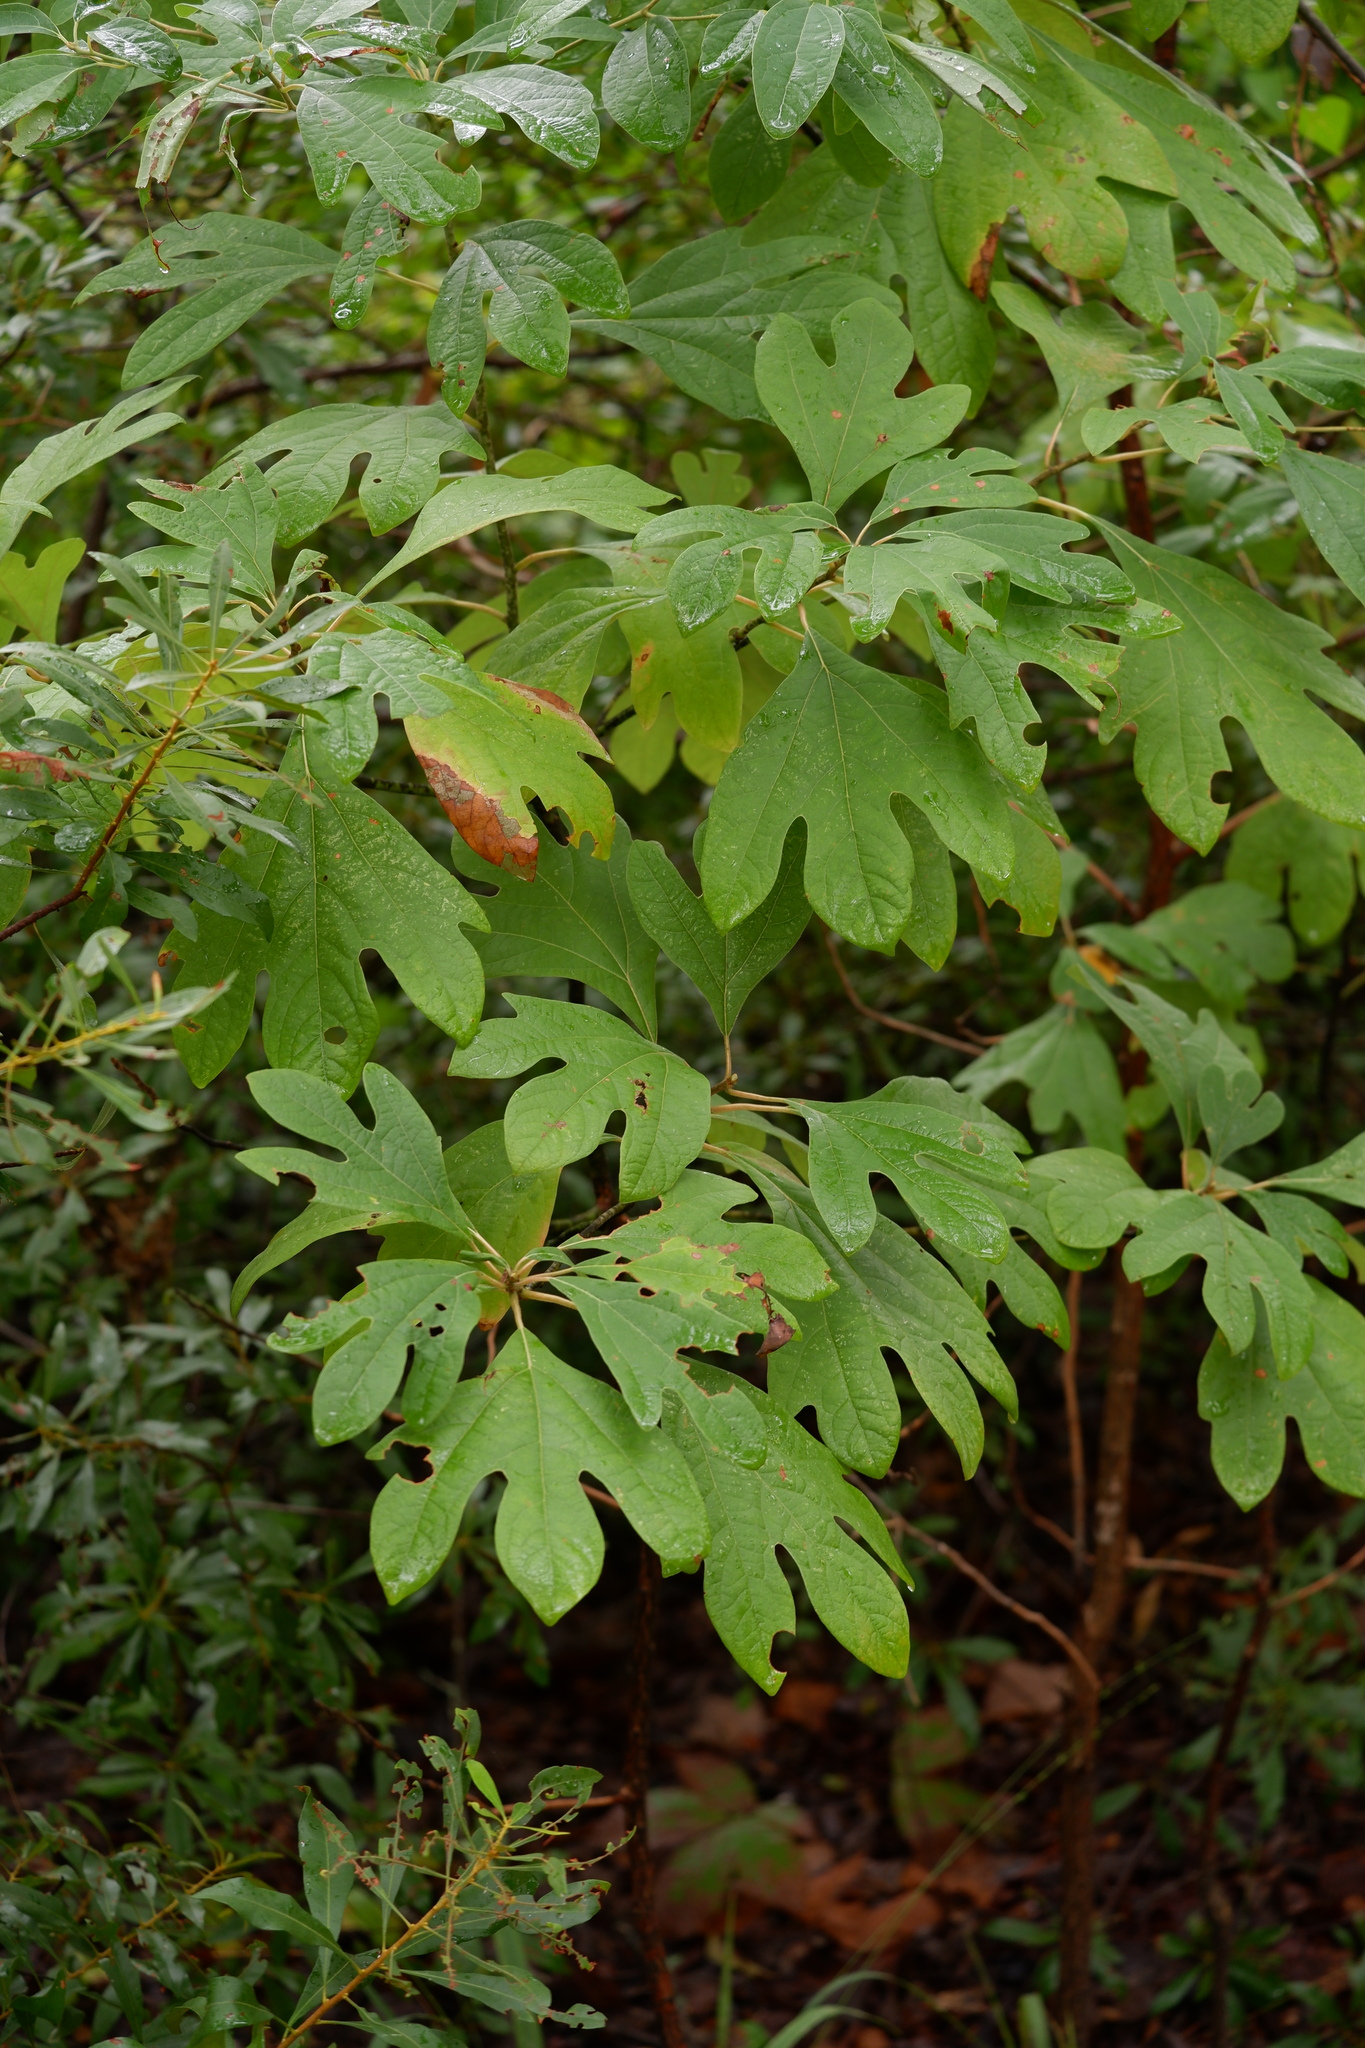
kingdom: Plantae
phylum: Tracheophyta
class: Magnoliopsida
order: Laurales
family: Lauraceae
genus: Sassafras
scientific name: Sassafras albidum
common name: Sassafras
